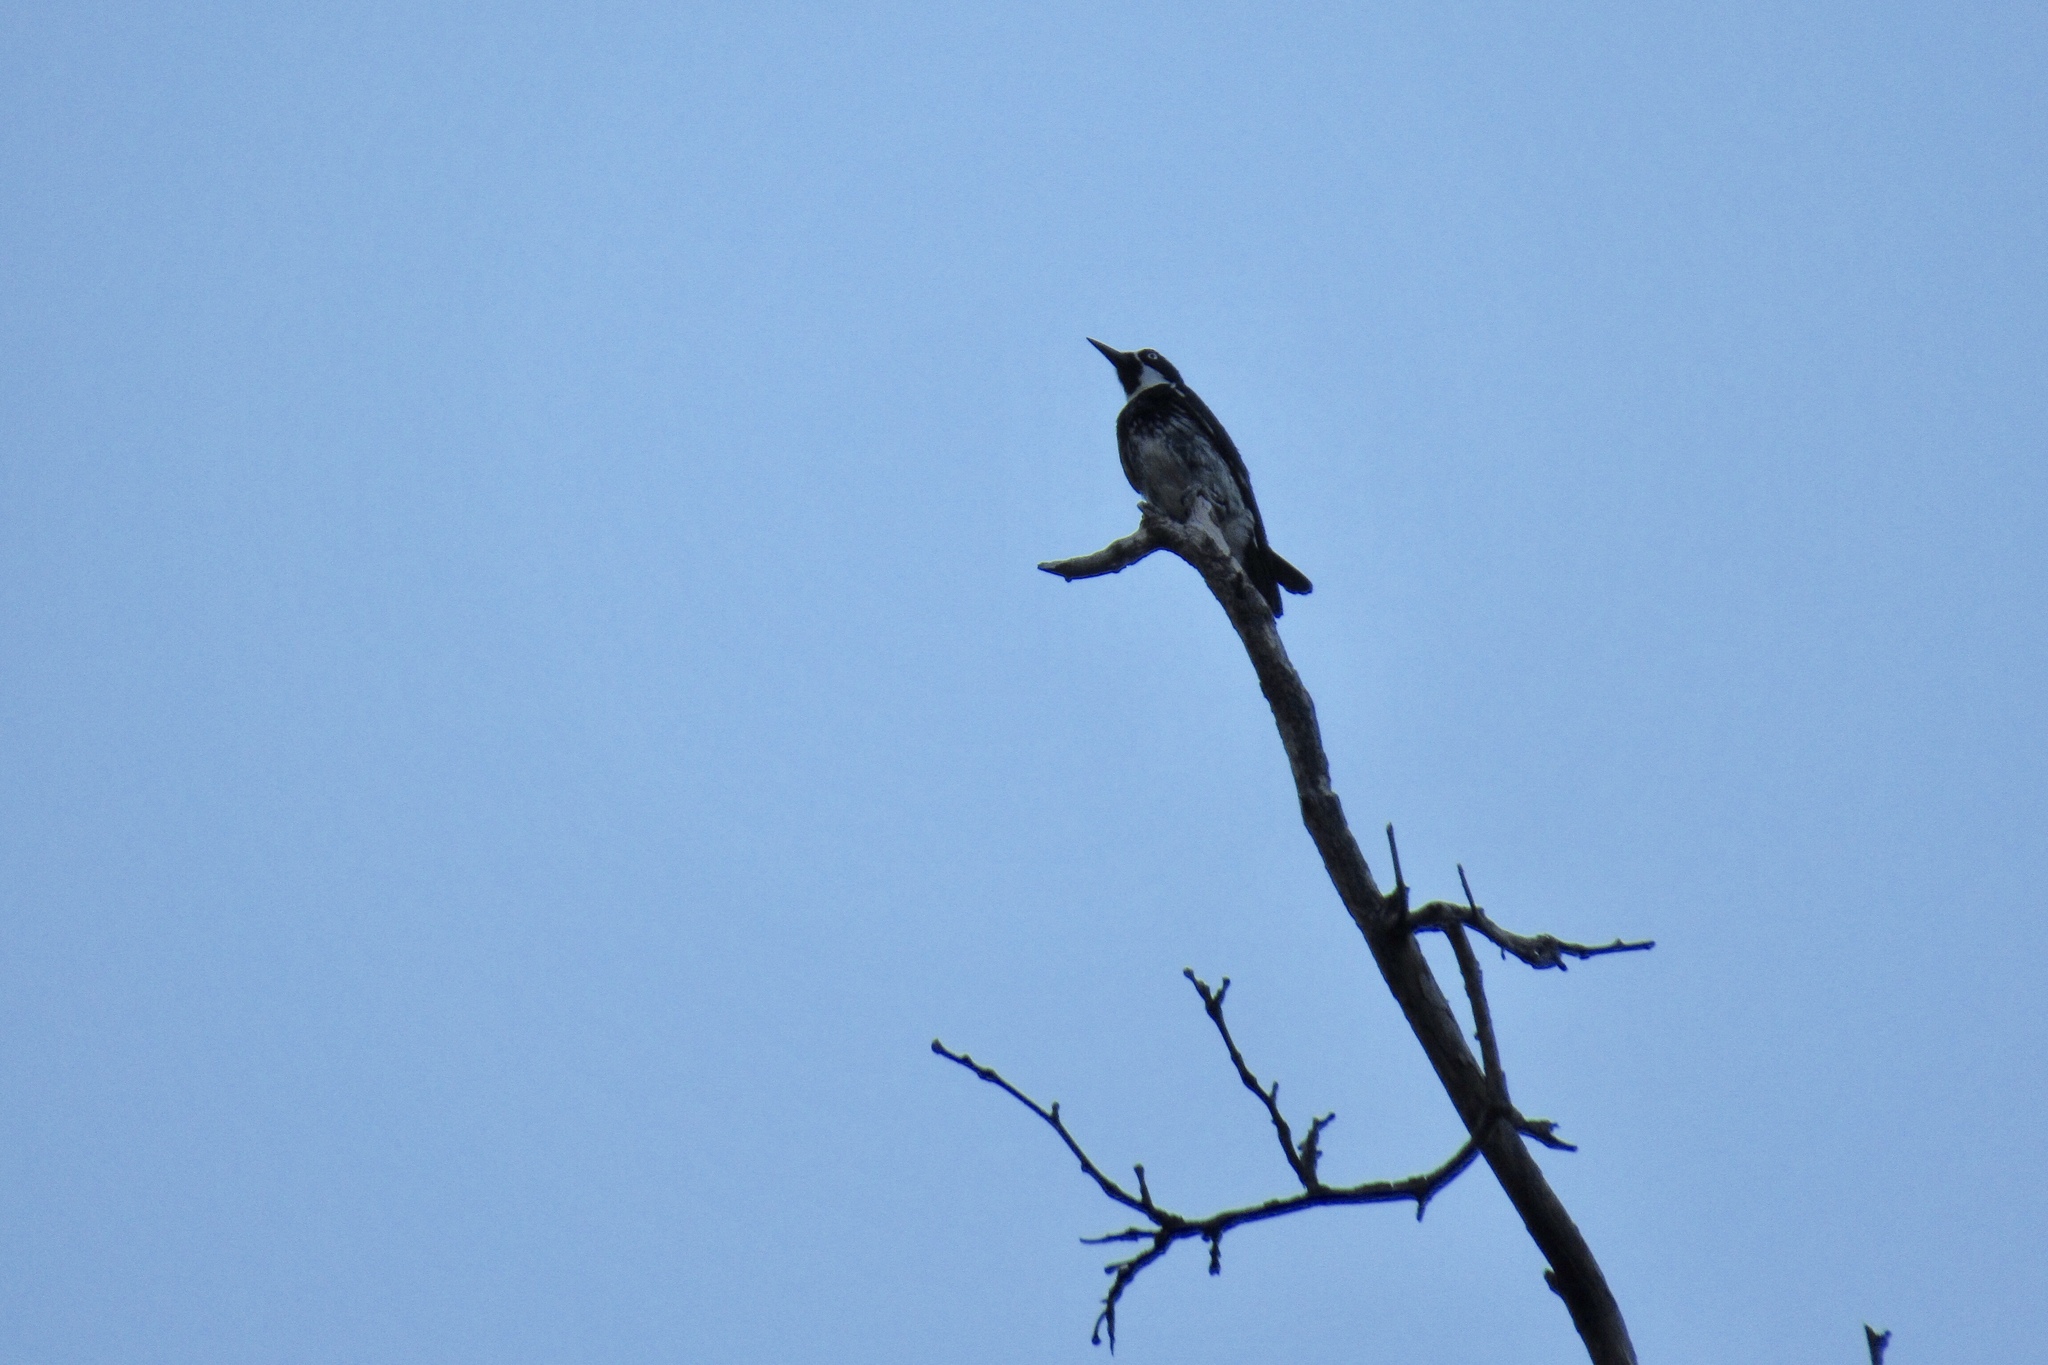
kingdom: Animalia
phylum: Chordata
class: Aves
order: Piciformes
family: Picidae
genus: Melanerpes
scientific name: Melanerpes formicivorus
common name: Acorn woodpecker
